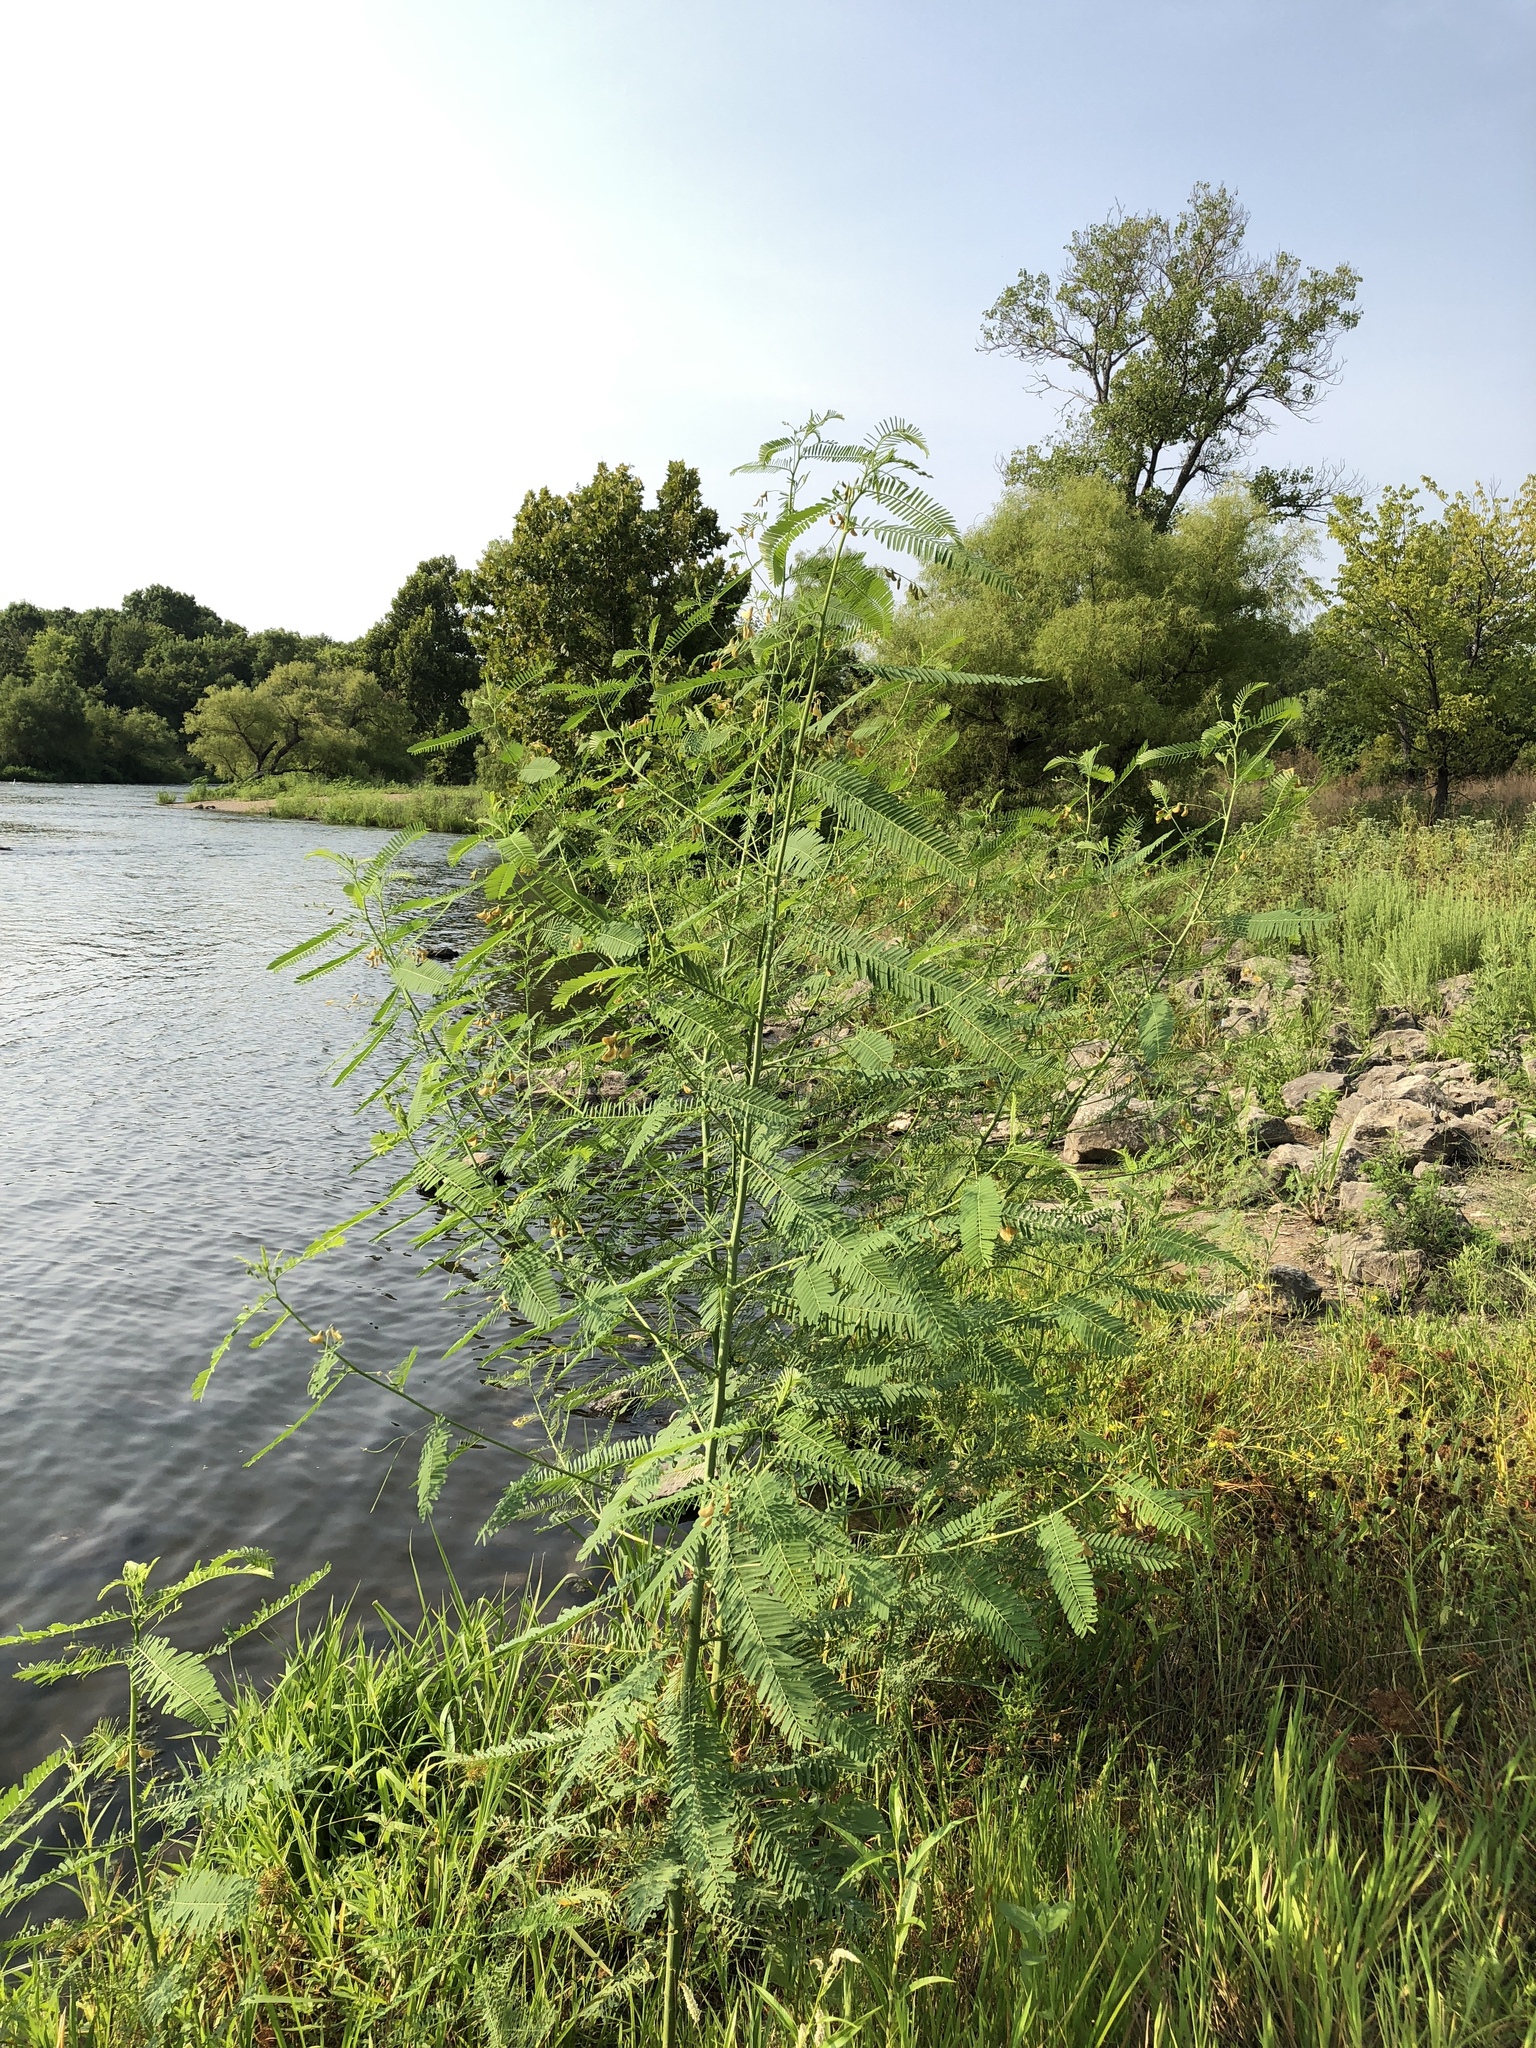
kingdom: Plantae
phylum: Tracheophyta
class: Magnoliopsida
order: Fabales
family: Fabaceae
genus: Sesbania
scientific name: Sesbania herbacea
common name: Bigpod sesbania
